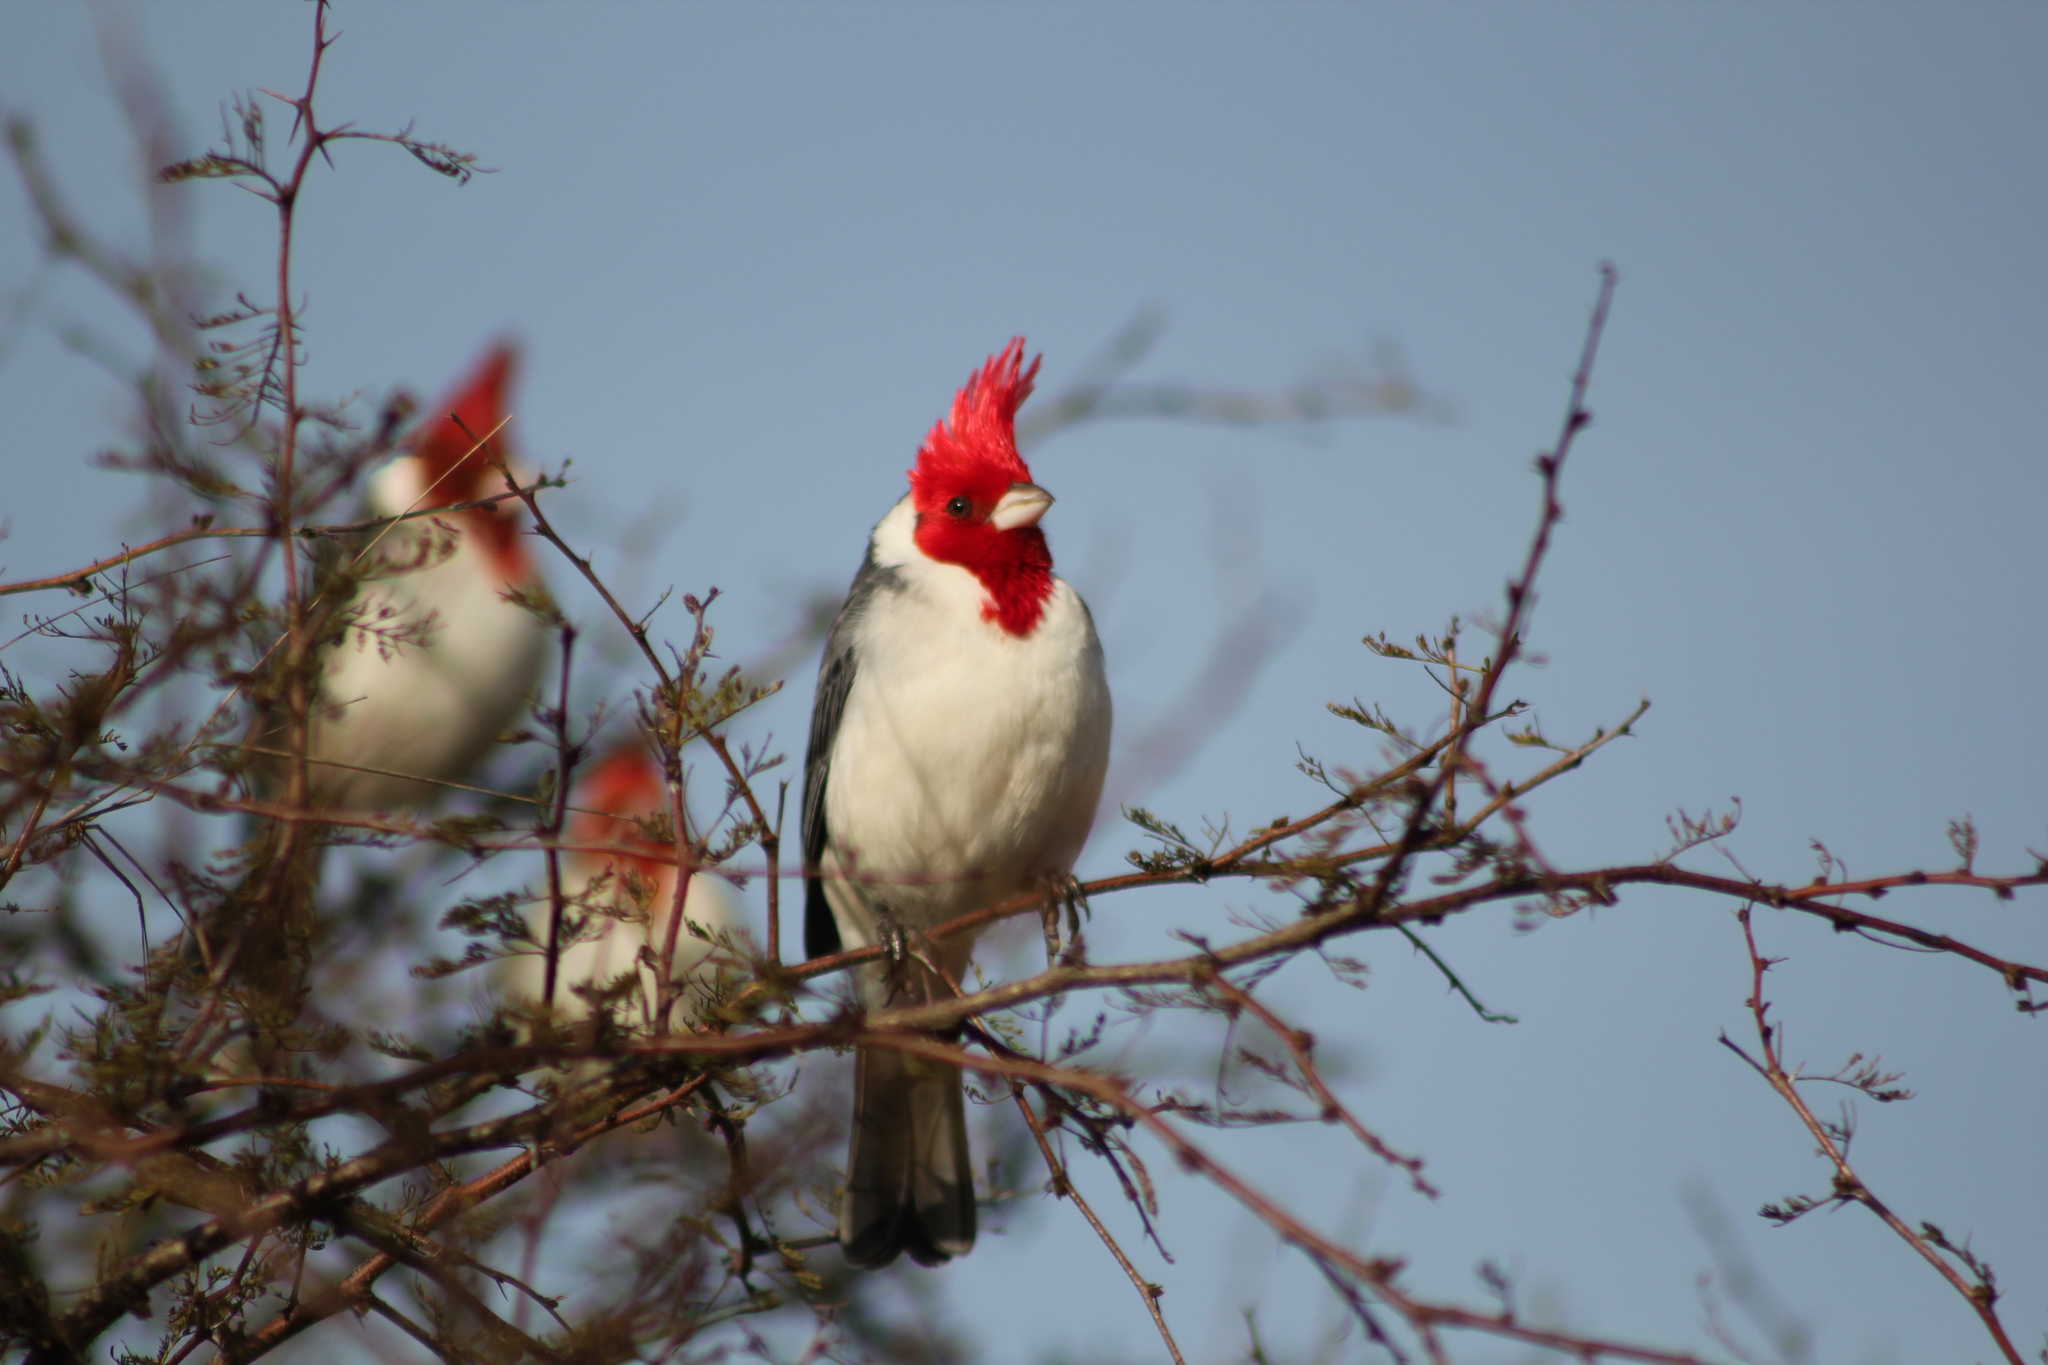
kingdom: Animalia
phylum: Chordata
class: Aves
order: Passeriformes
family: Thraupidae
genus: Paroaria
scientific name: Paroaria coronata
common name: Red-crested cardinal
